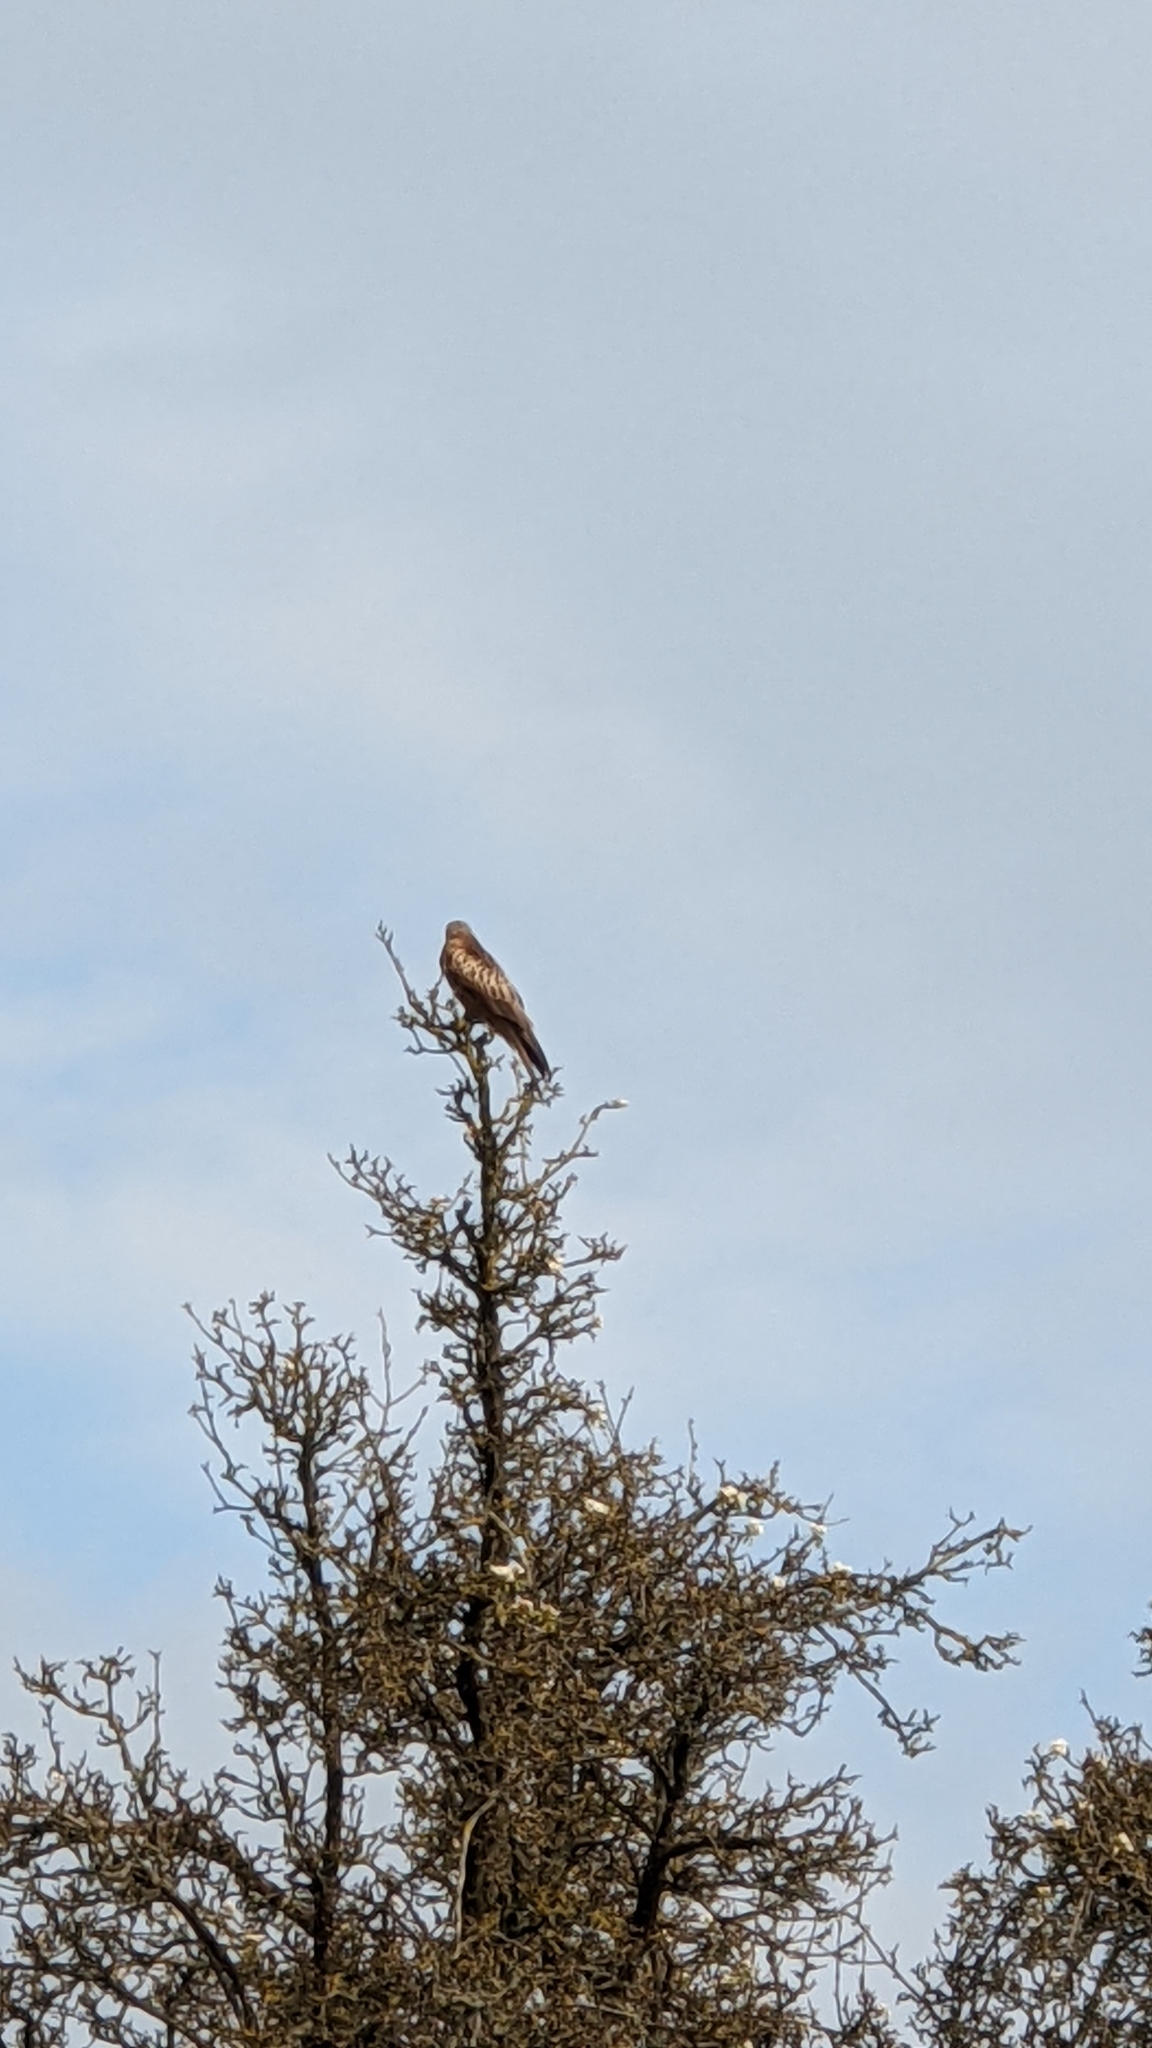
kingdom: Animalia
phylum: Chordata
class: Aves
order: Accipitriformes
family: Accipitridae
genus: Milvus
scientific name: Milvus milvus
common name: Red kite
